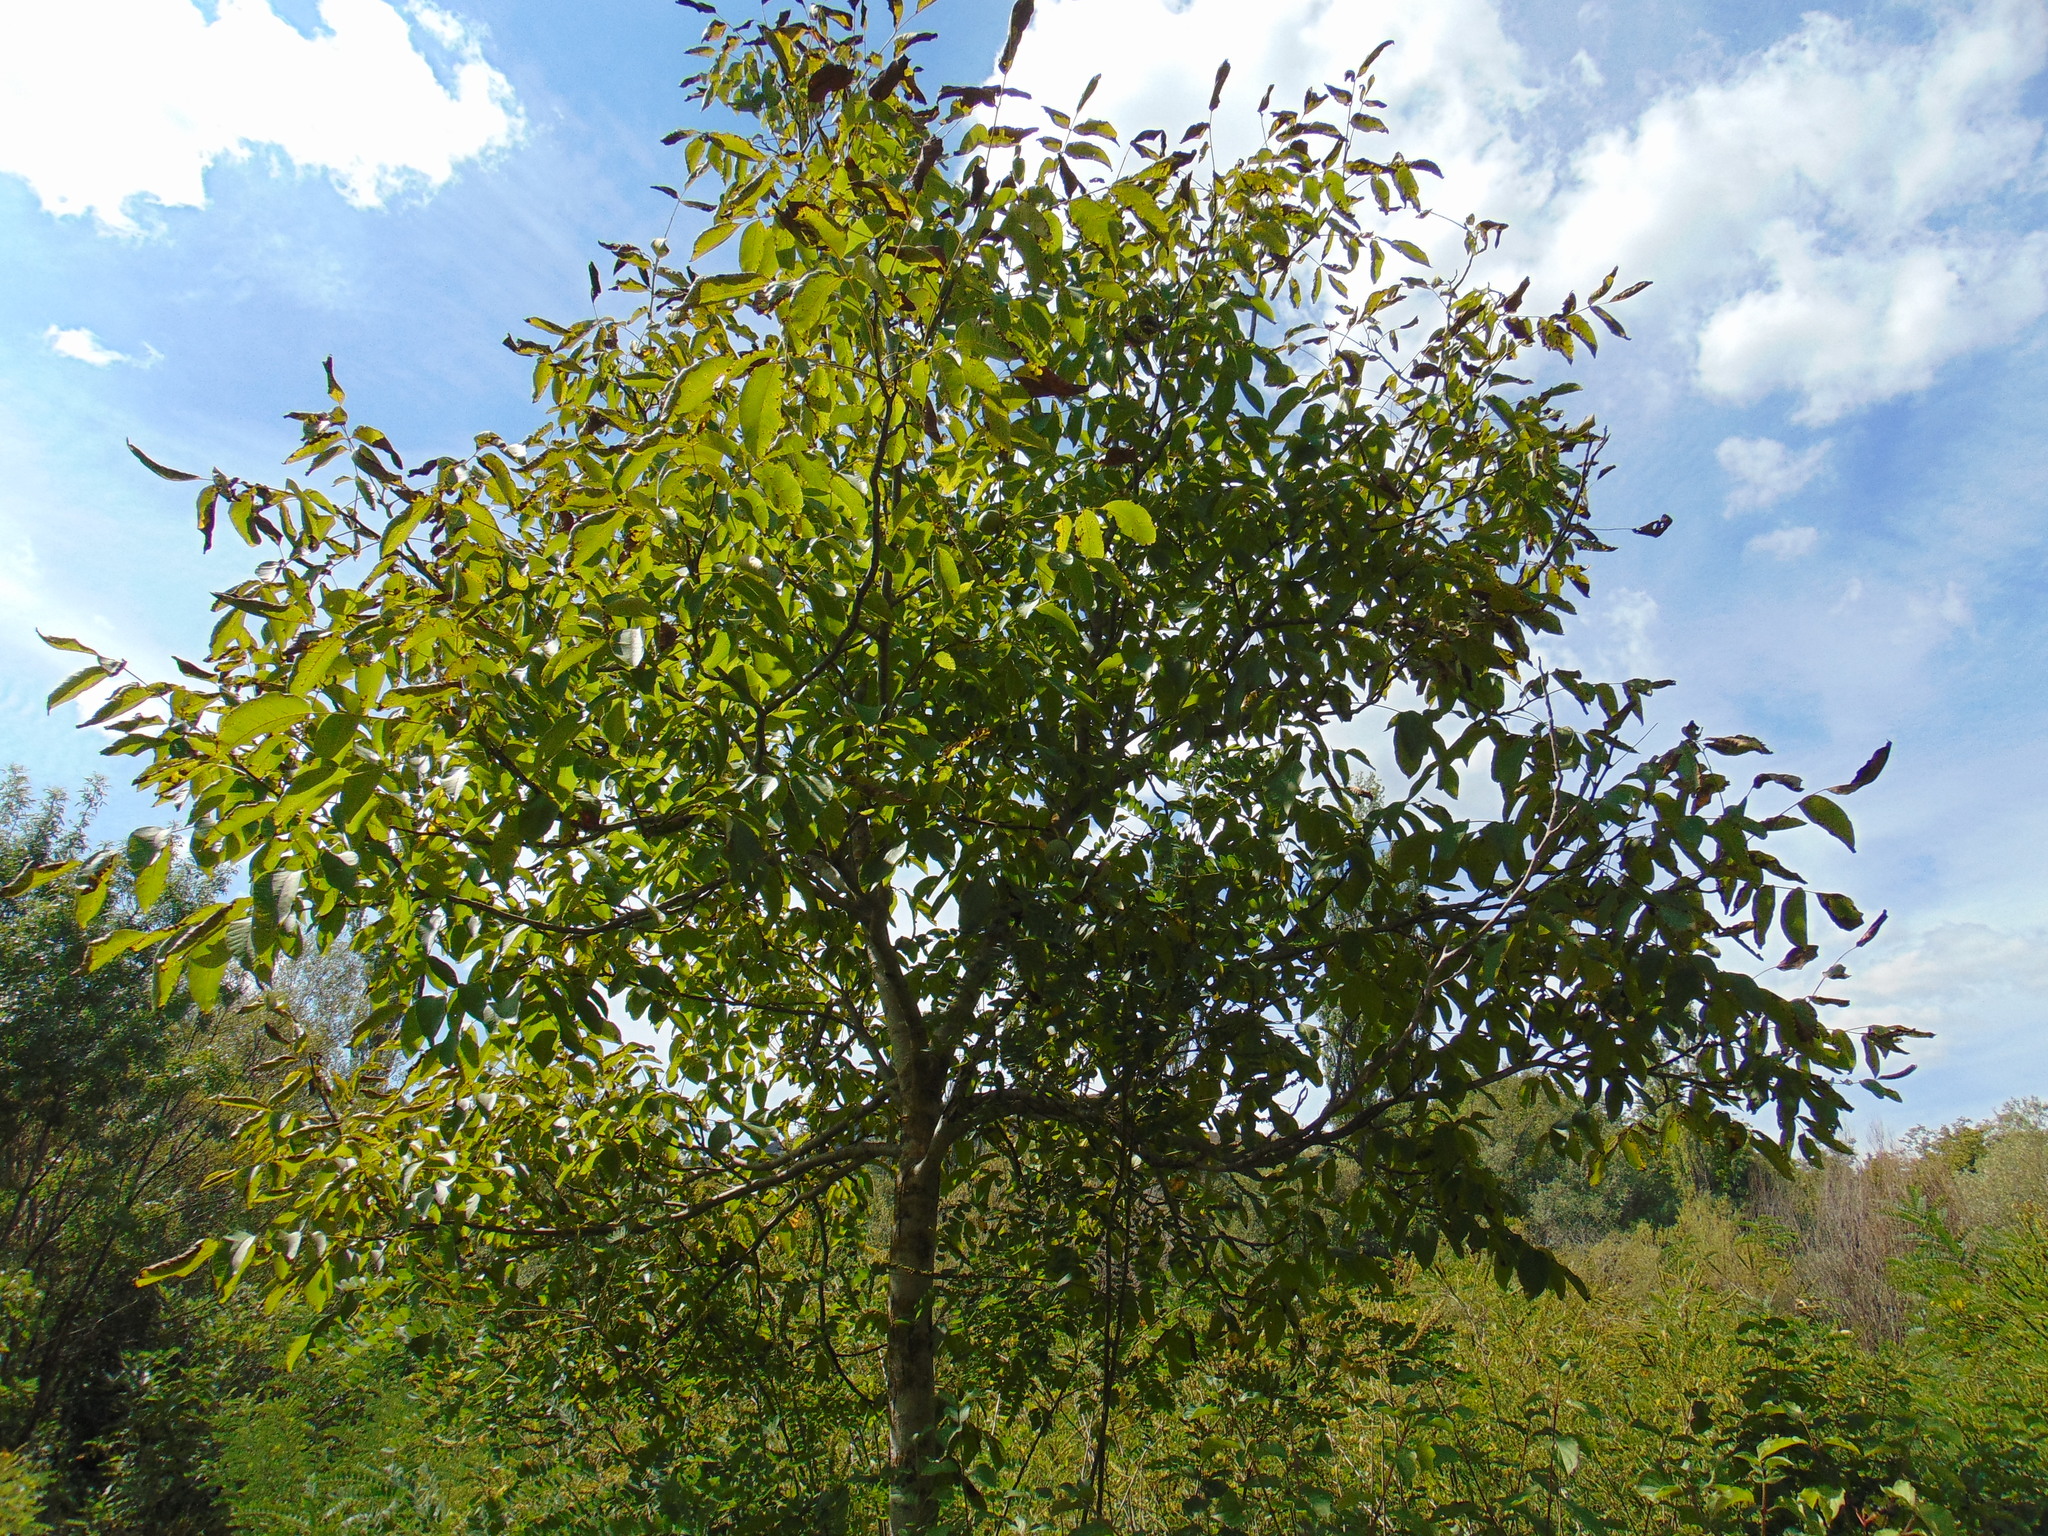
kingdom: Plantae
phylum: Tracheophyta
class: Magnoliopsida
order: Fagales
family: Juglandaceae
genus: Juglans
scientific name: Juglans regia
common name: Walnut
